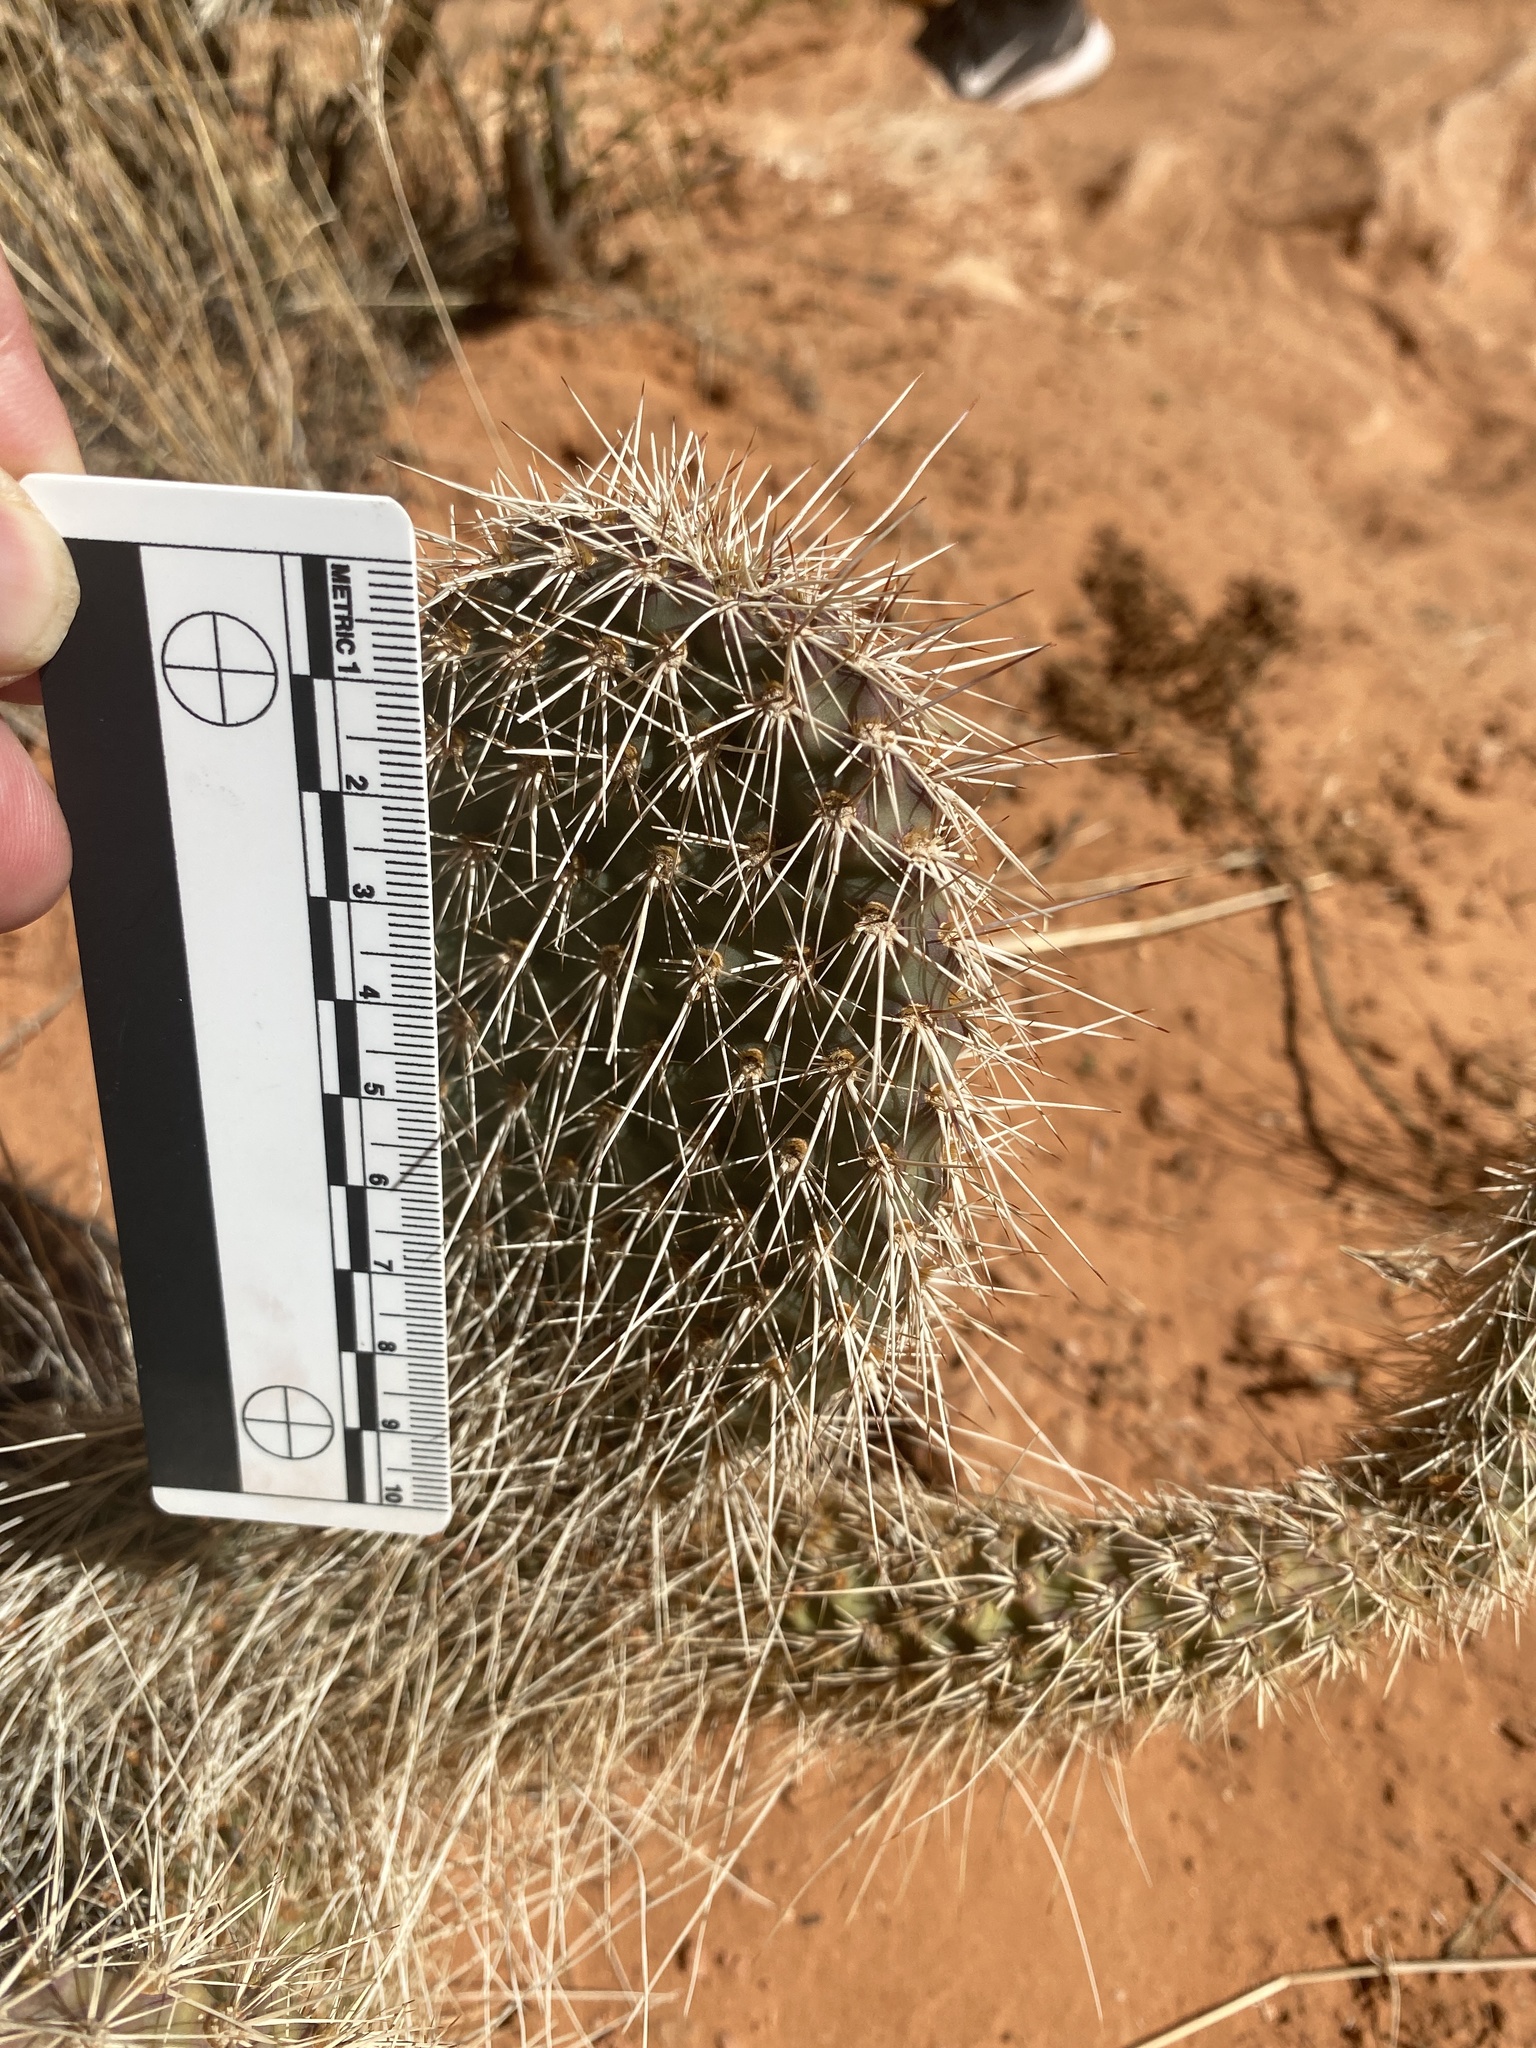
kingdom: Plantae
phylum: Tracheophyta
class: Magnoliopsida
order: Caryophyllales
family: Cactaceae
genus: Opuntia
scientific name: Opuntia polyacantha
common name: Plains prickly-pear
